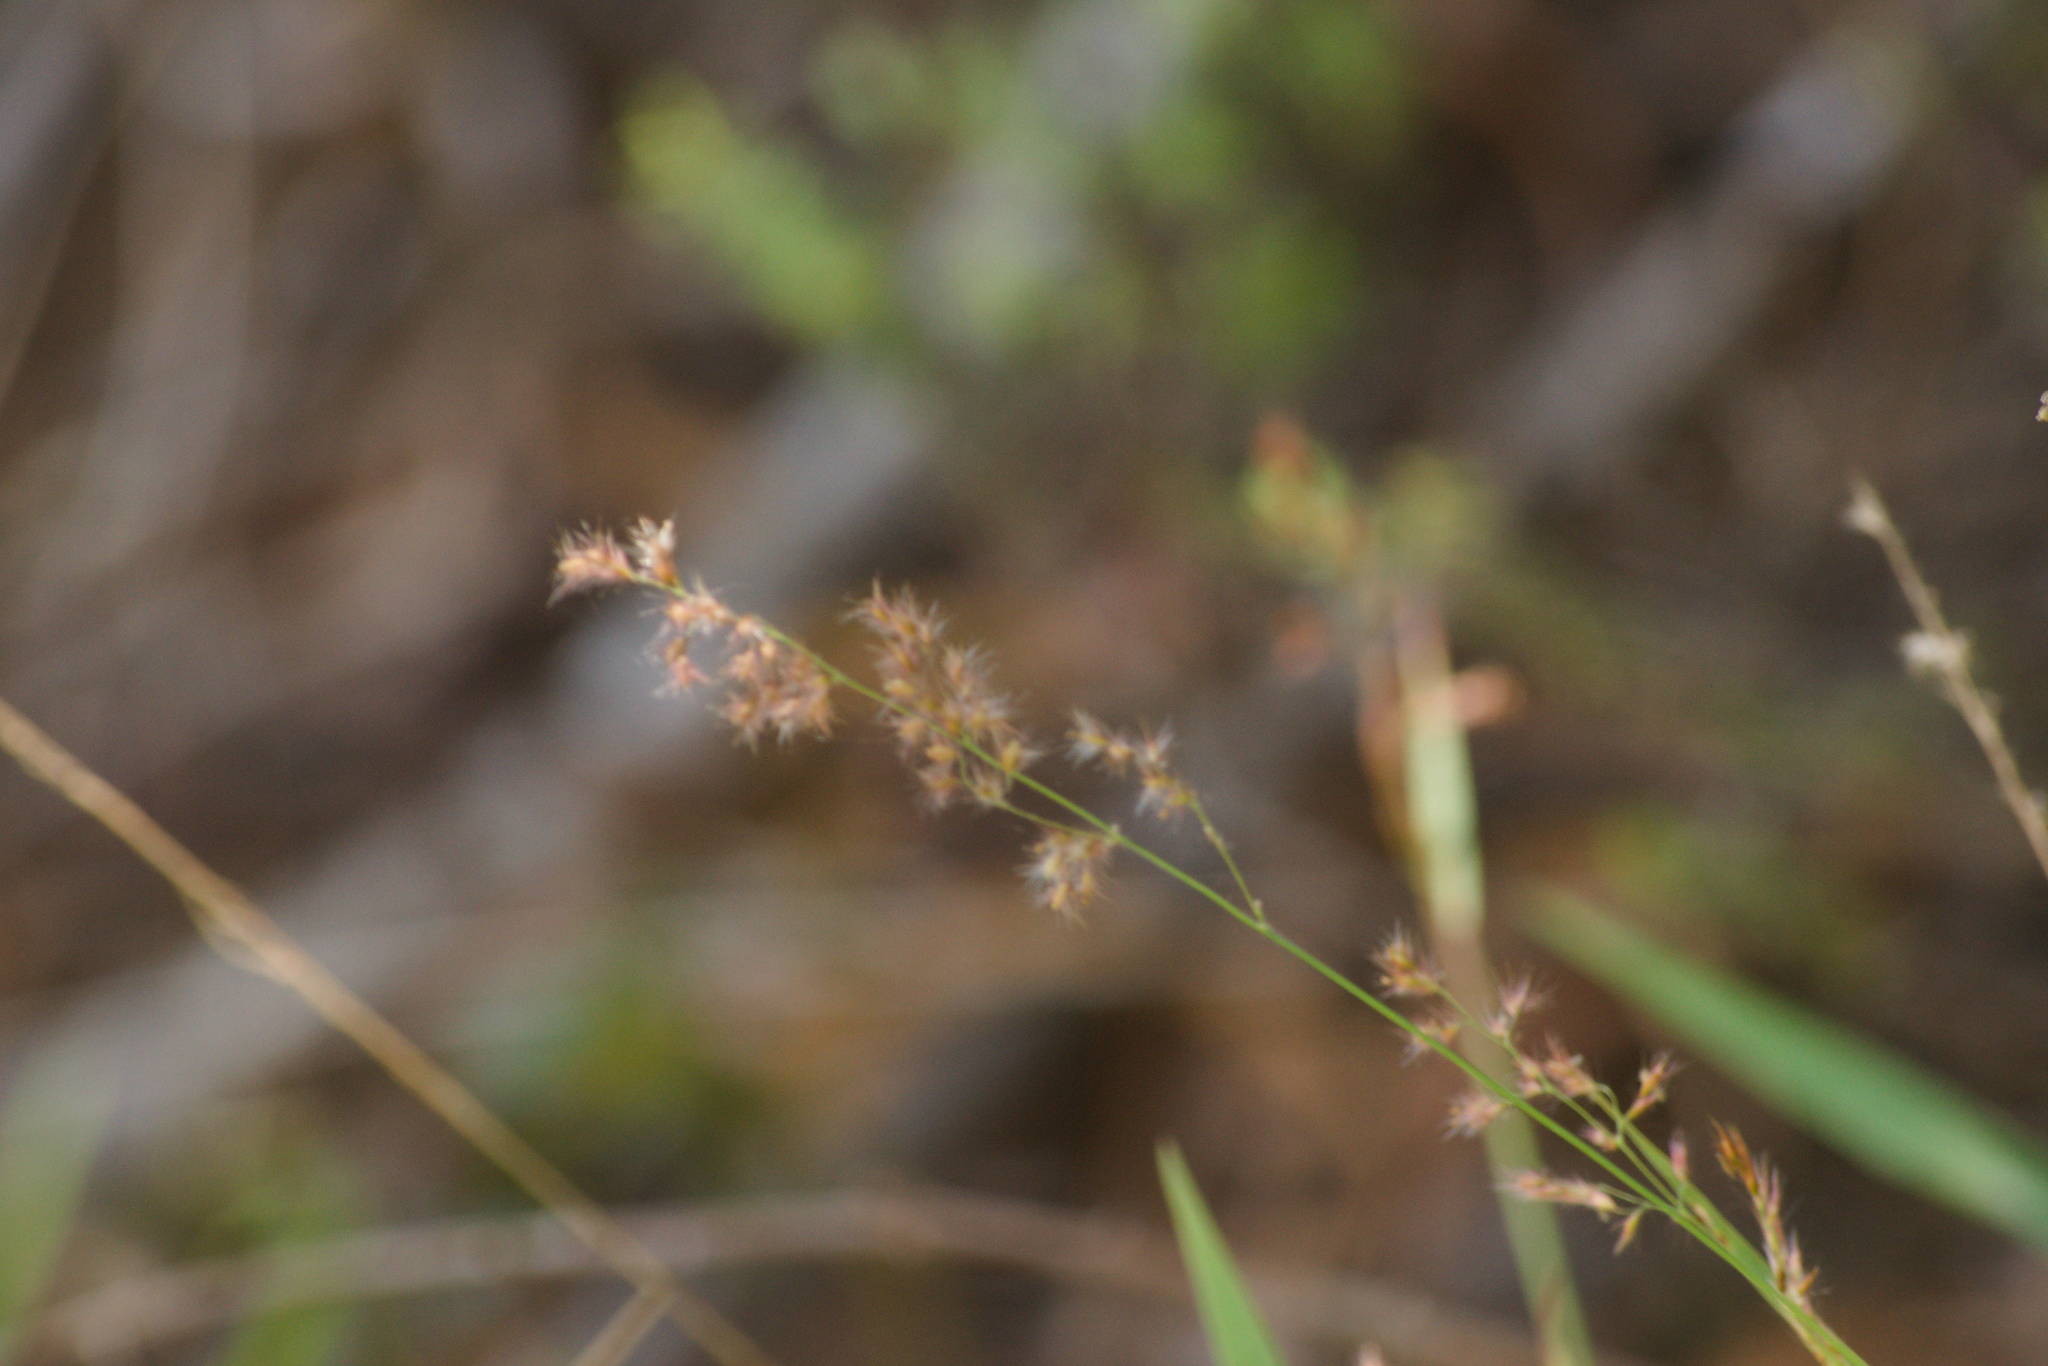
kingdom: Plantae
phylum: Tracheophyta
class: Liliopsida
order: Poales
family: Poaceae
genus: Melinis
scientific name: Melinis repens
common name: Rose natal grass
